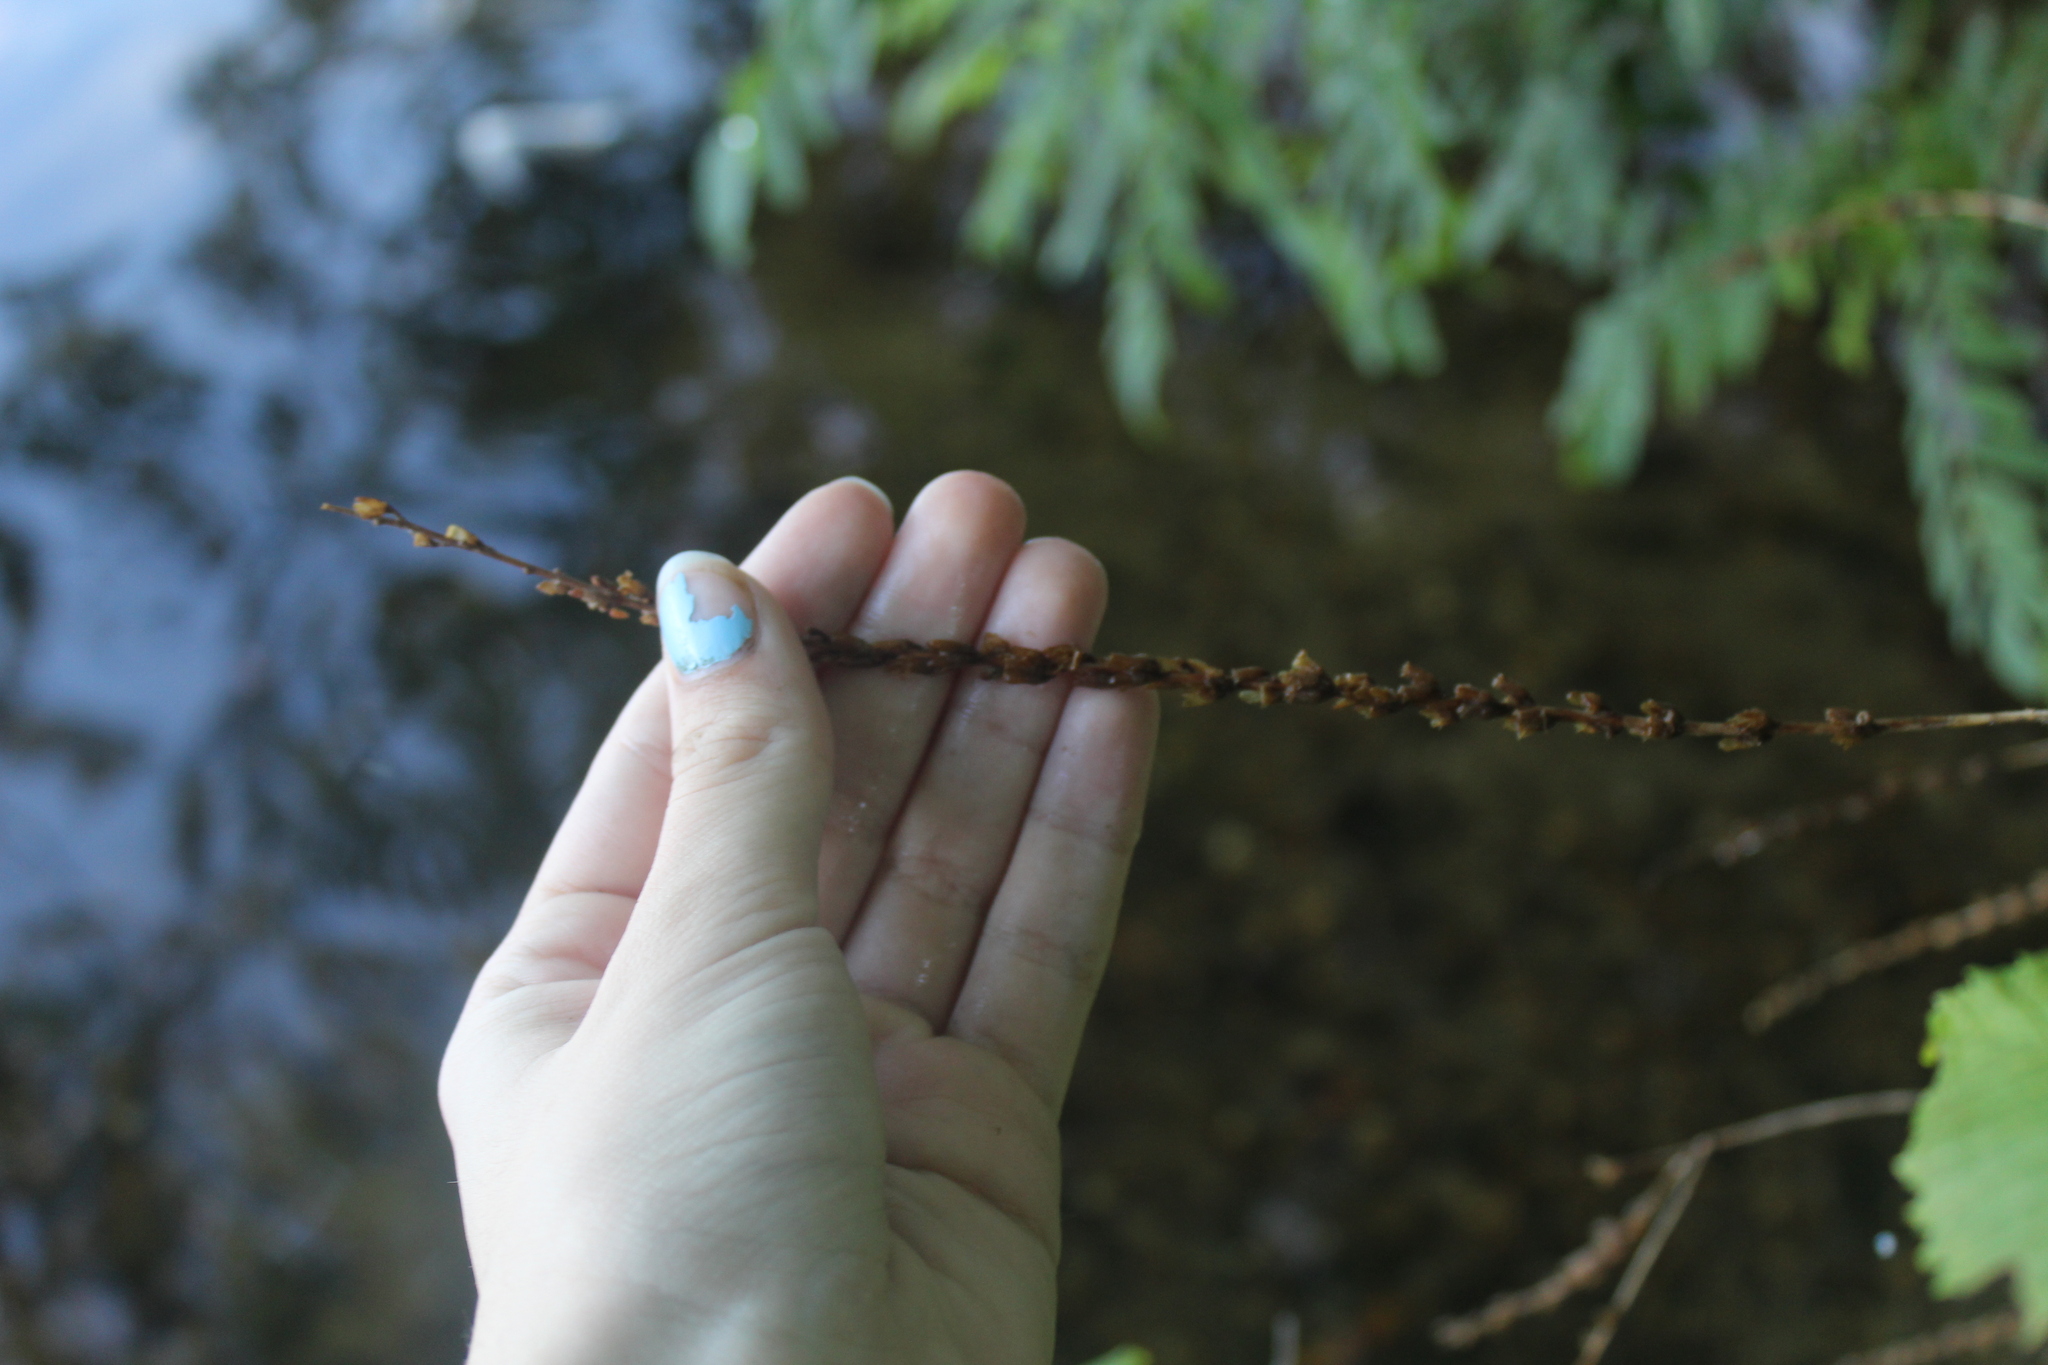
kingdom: Plantae
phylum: Tracheophyta
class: Magnoliopsida
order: Myrtales
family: Lythraceae
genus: Lythrum
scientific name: Lythrum salicaria
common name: Purple loosestrife
